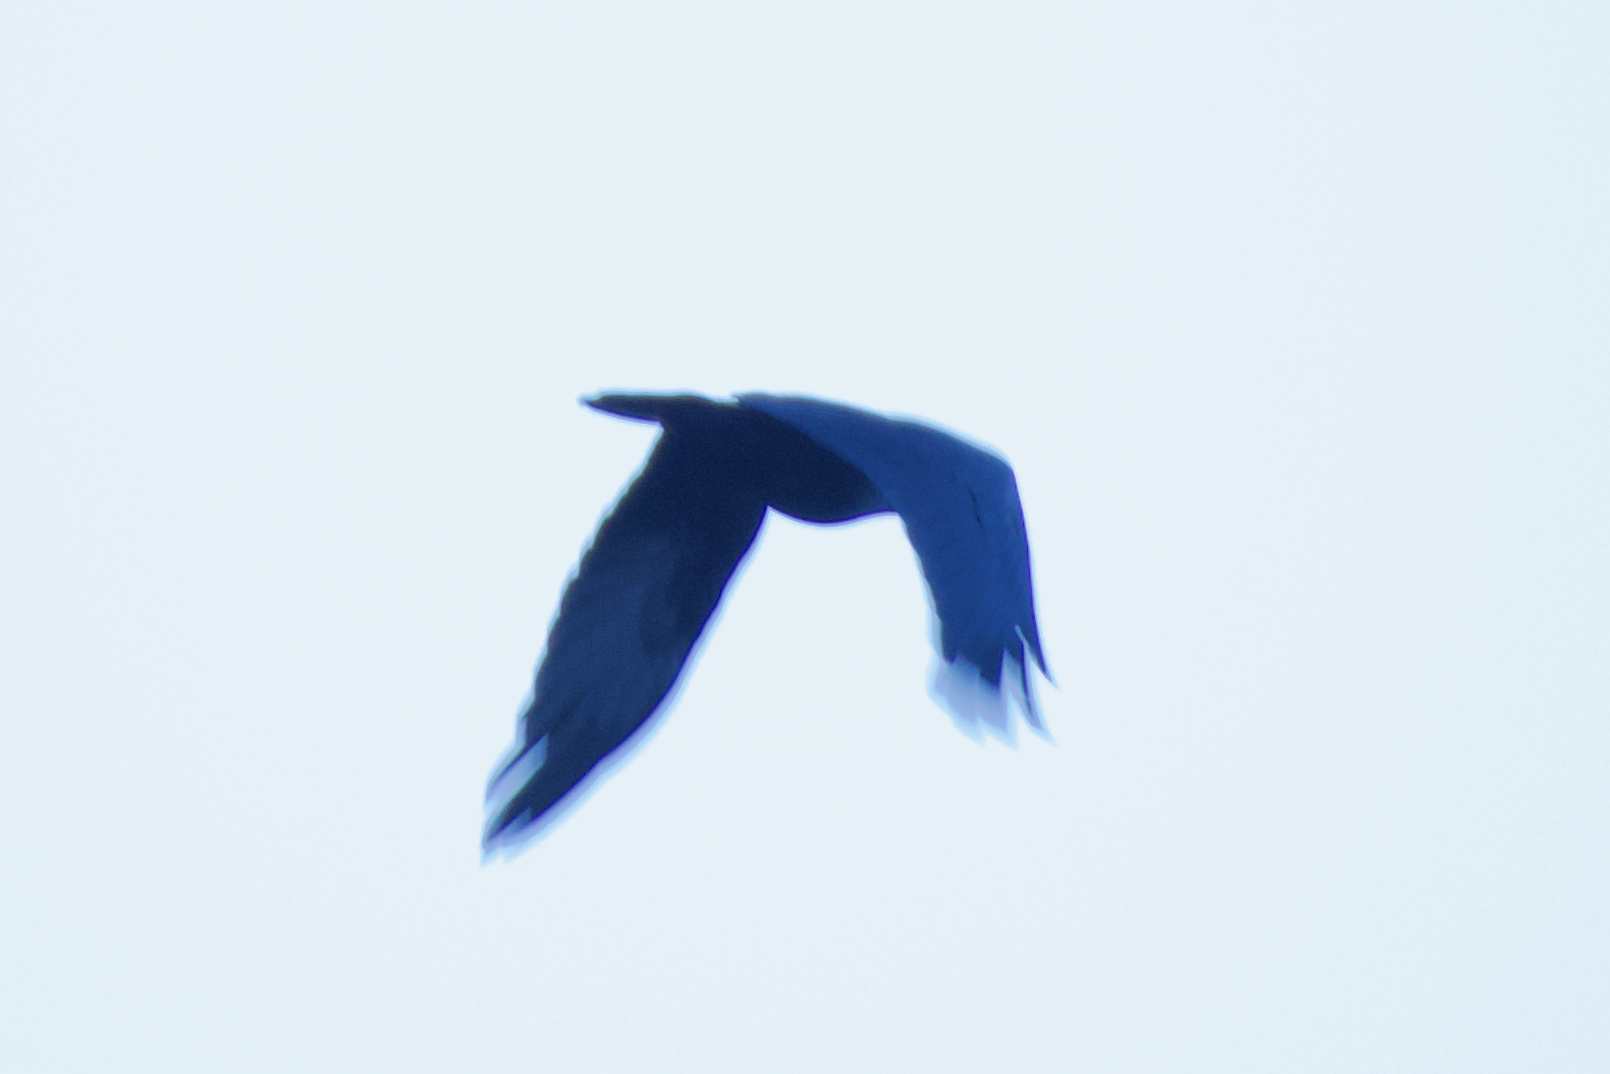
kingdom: Animalia
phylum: Chordata
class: Aves
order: Passeriformes
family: Corvidae
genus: Corvus
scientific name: Corvus corax
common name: Common raven
